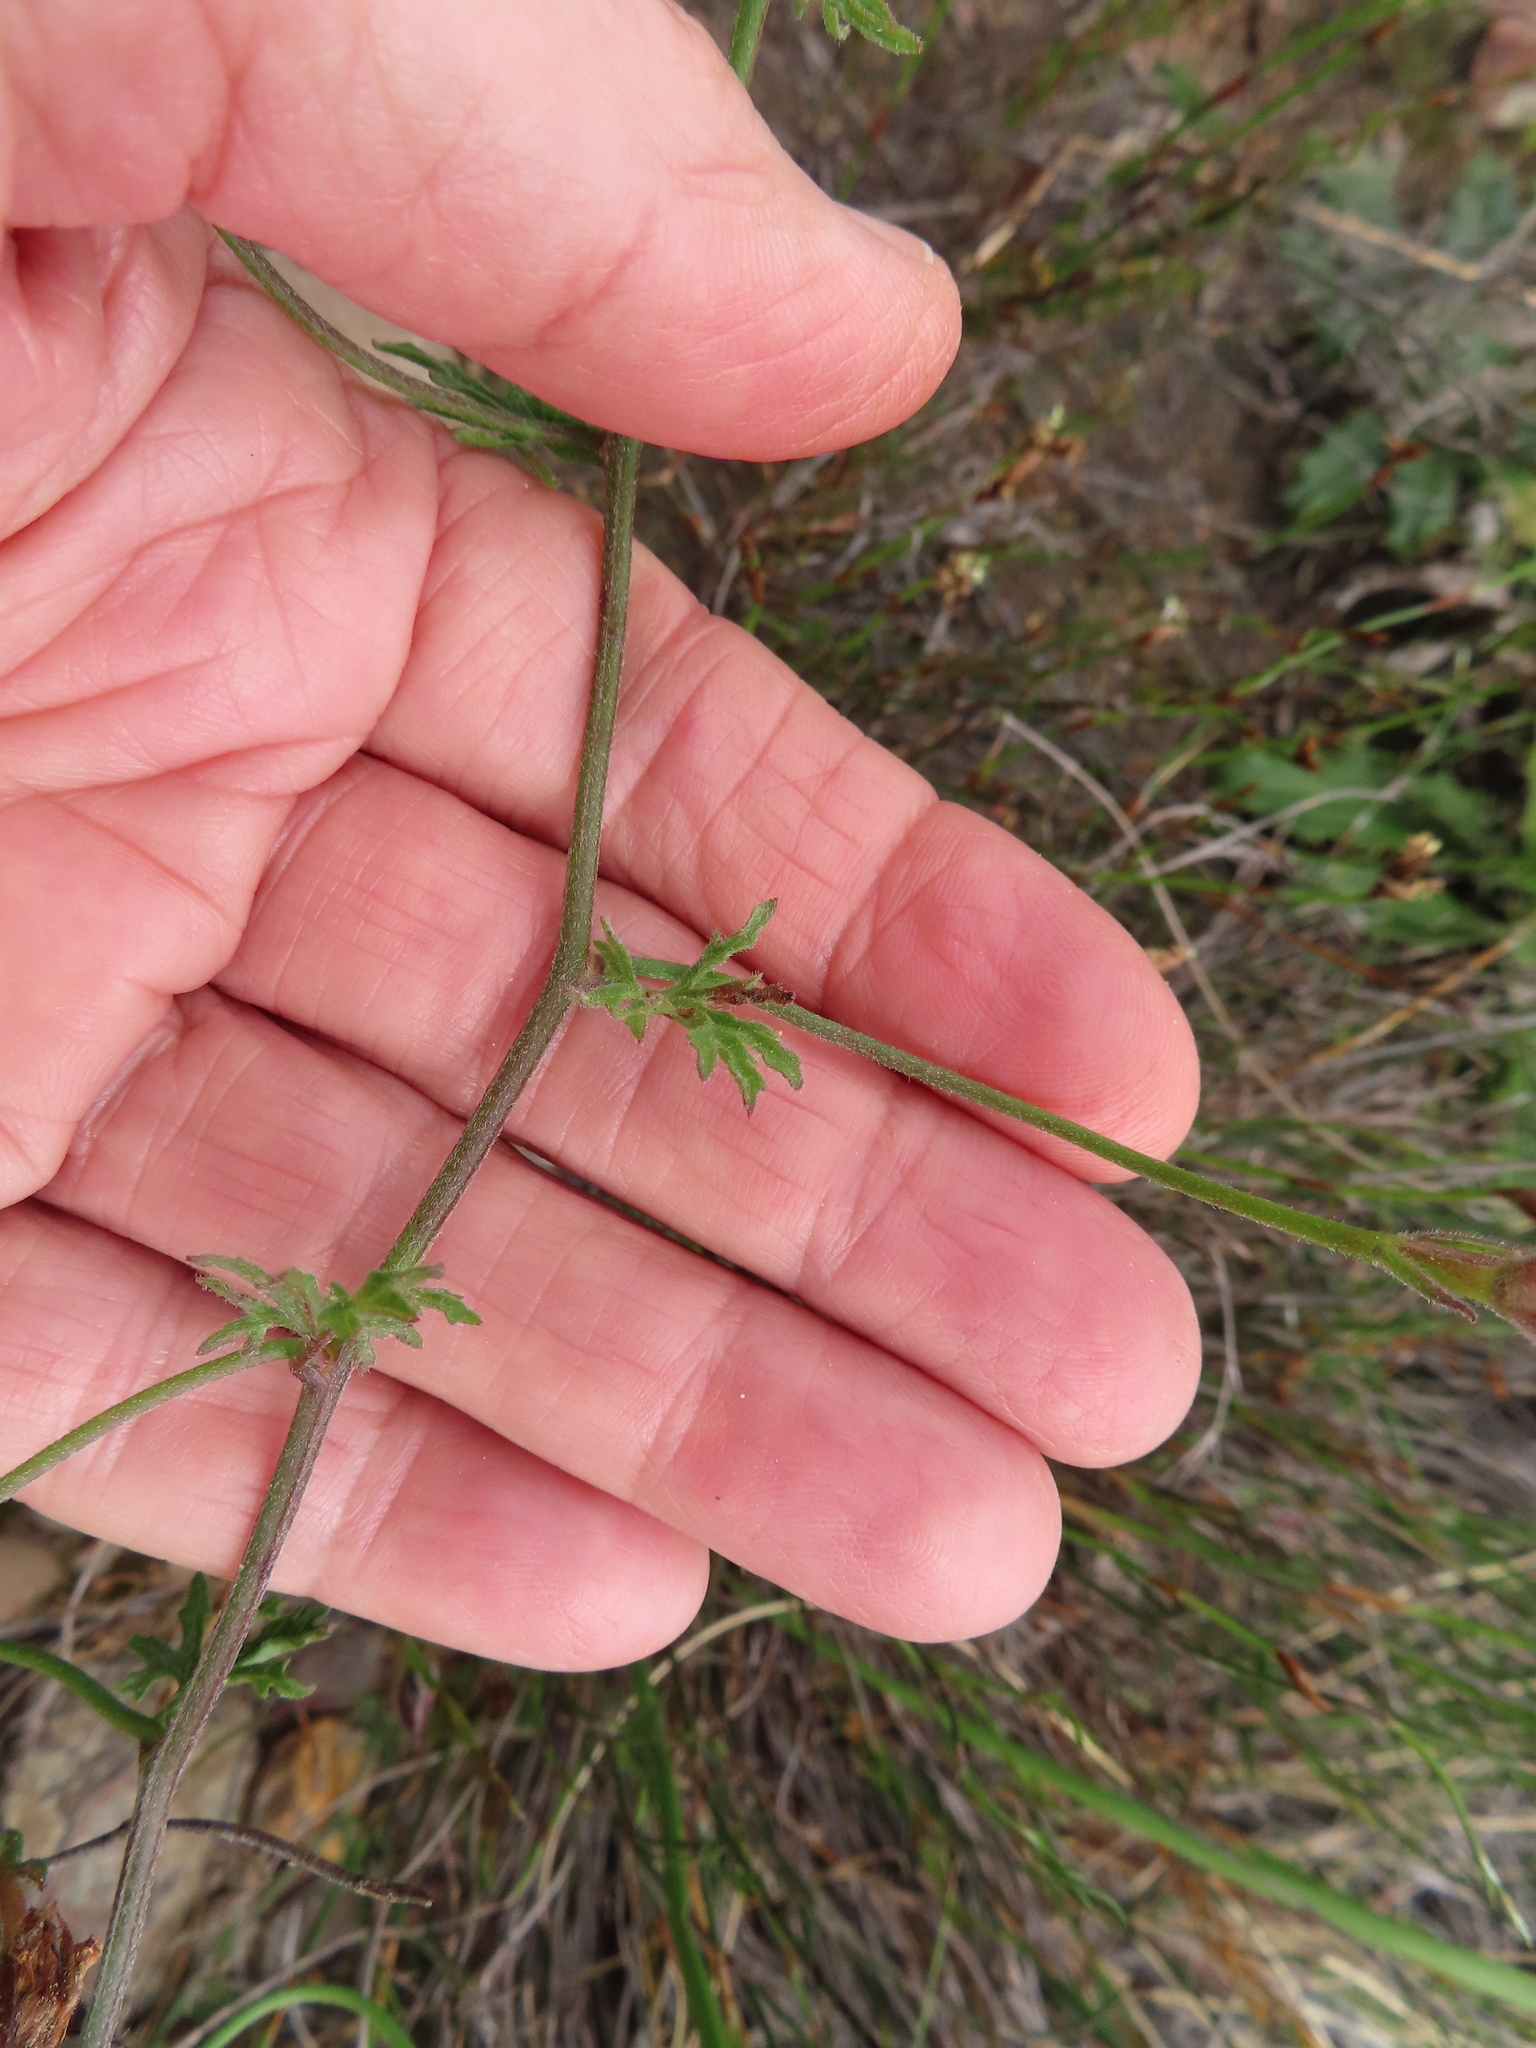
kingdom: Plantae
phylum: Tracheophyta
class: Magnoliopsida
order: Solanales
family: Convolvulaceae
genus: Convolvulus
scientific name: Convolvulus capensis
